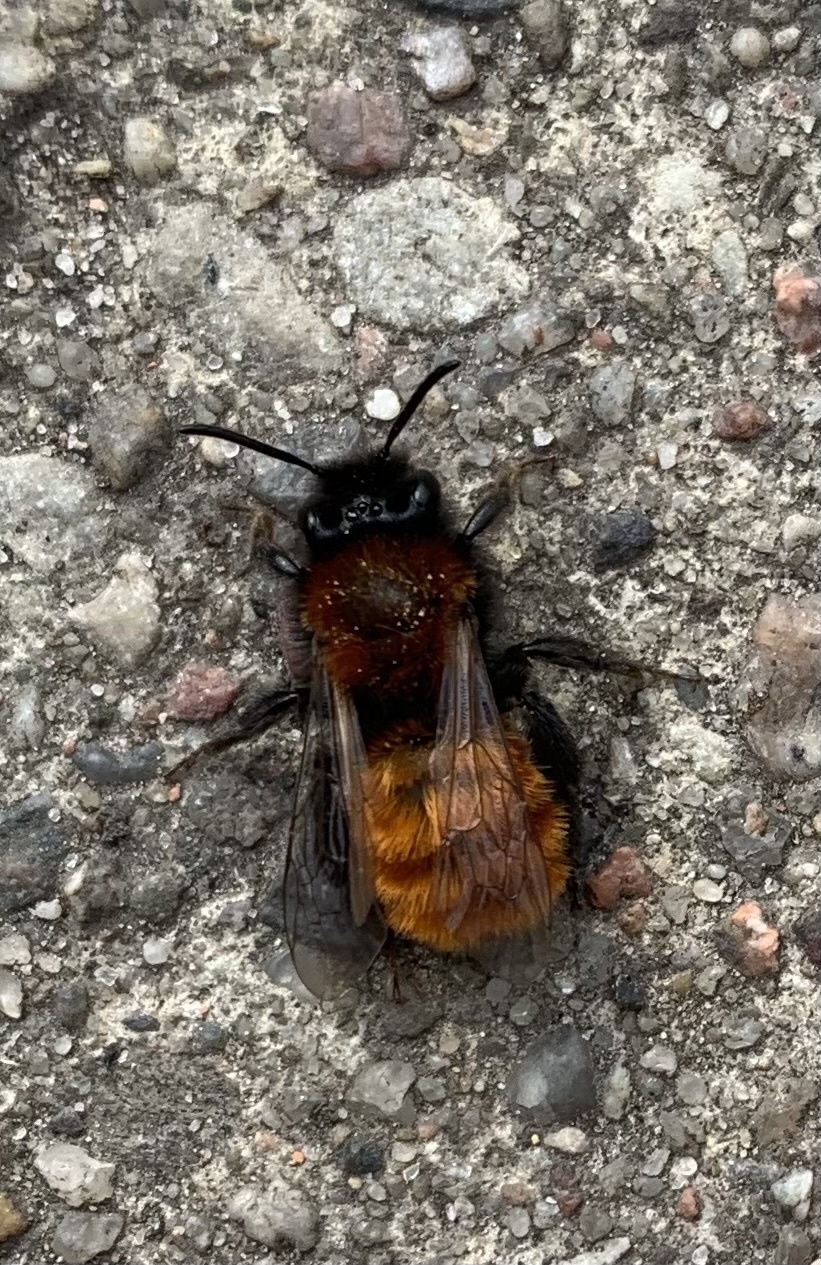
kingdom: Animalia
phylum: Arthropoda
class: Insecta
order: Hymenoptera
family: Andrenidae
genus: Andrena
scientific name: Andrena fulva
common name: Tawny mining bee
